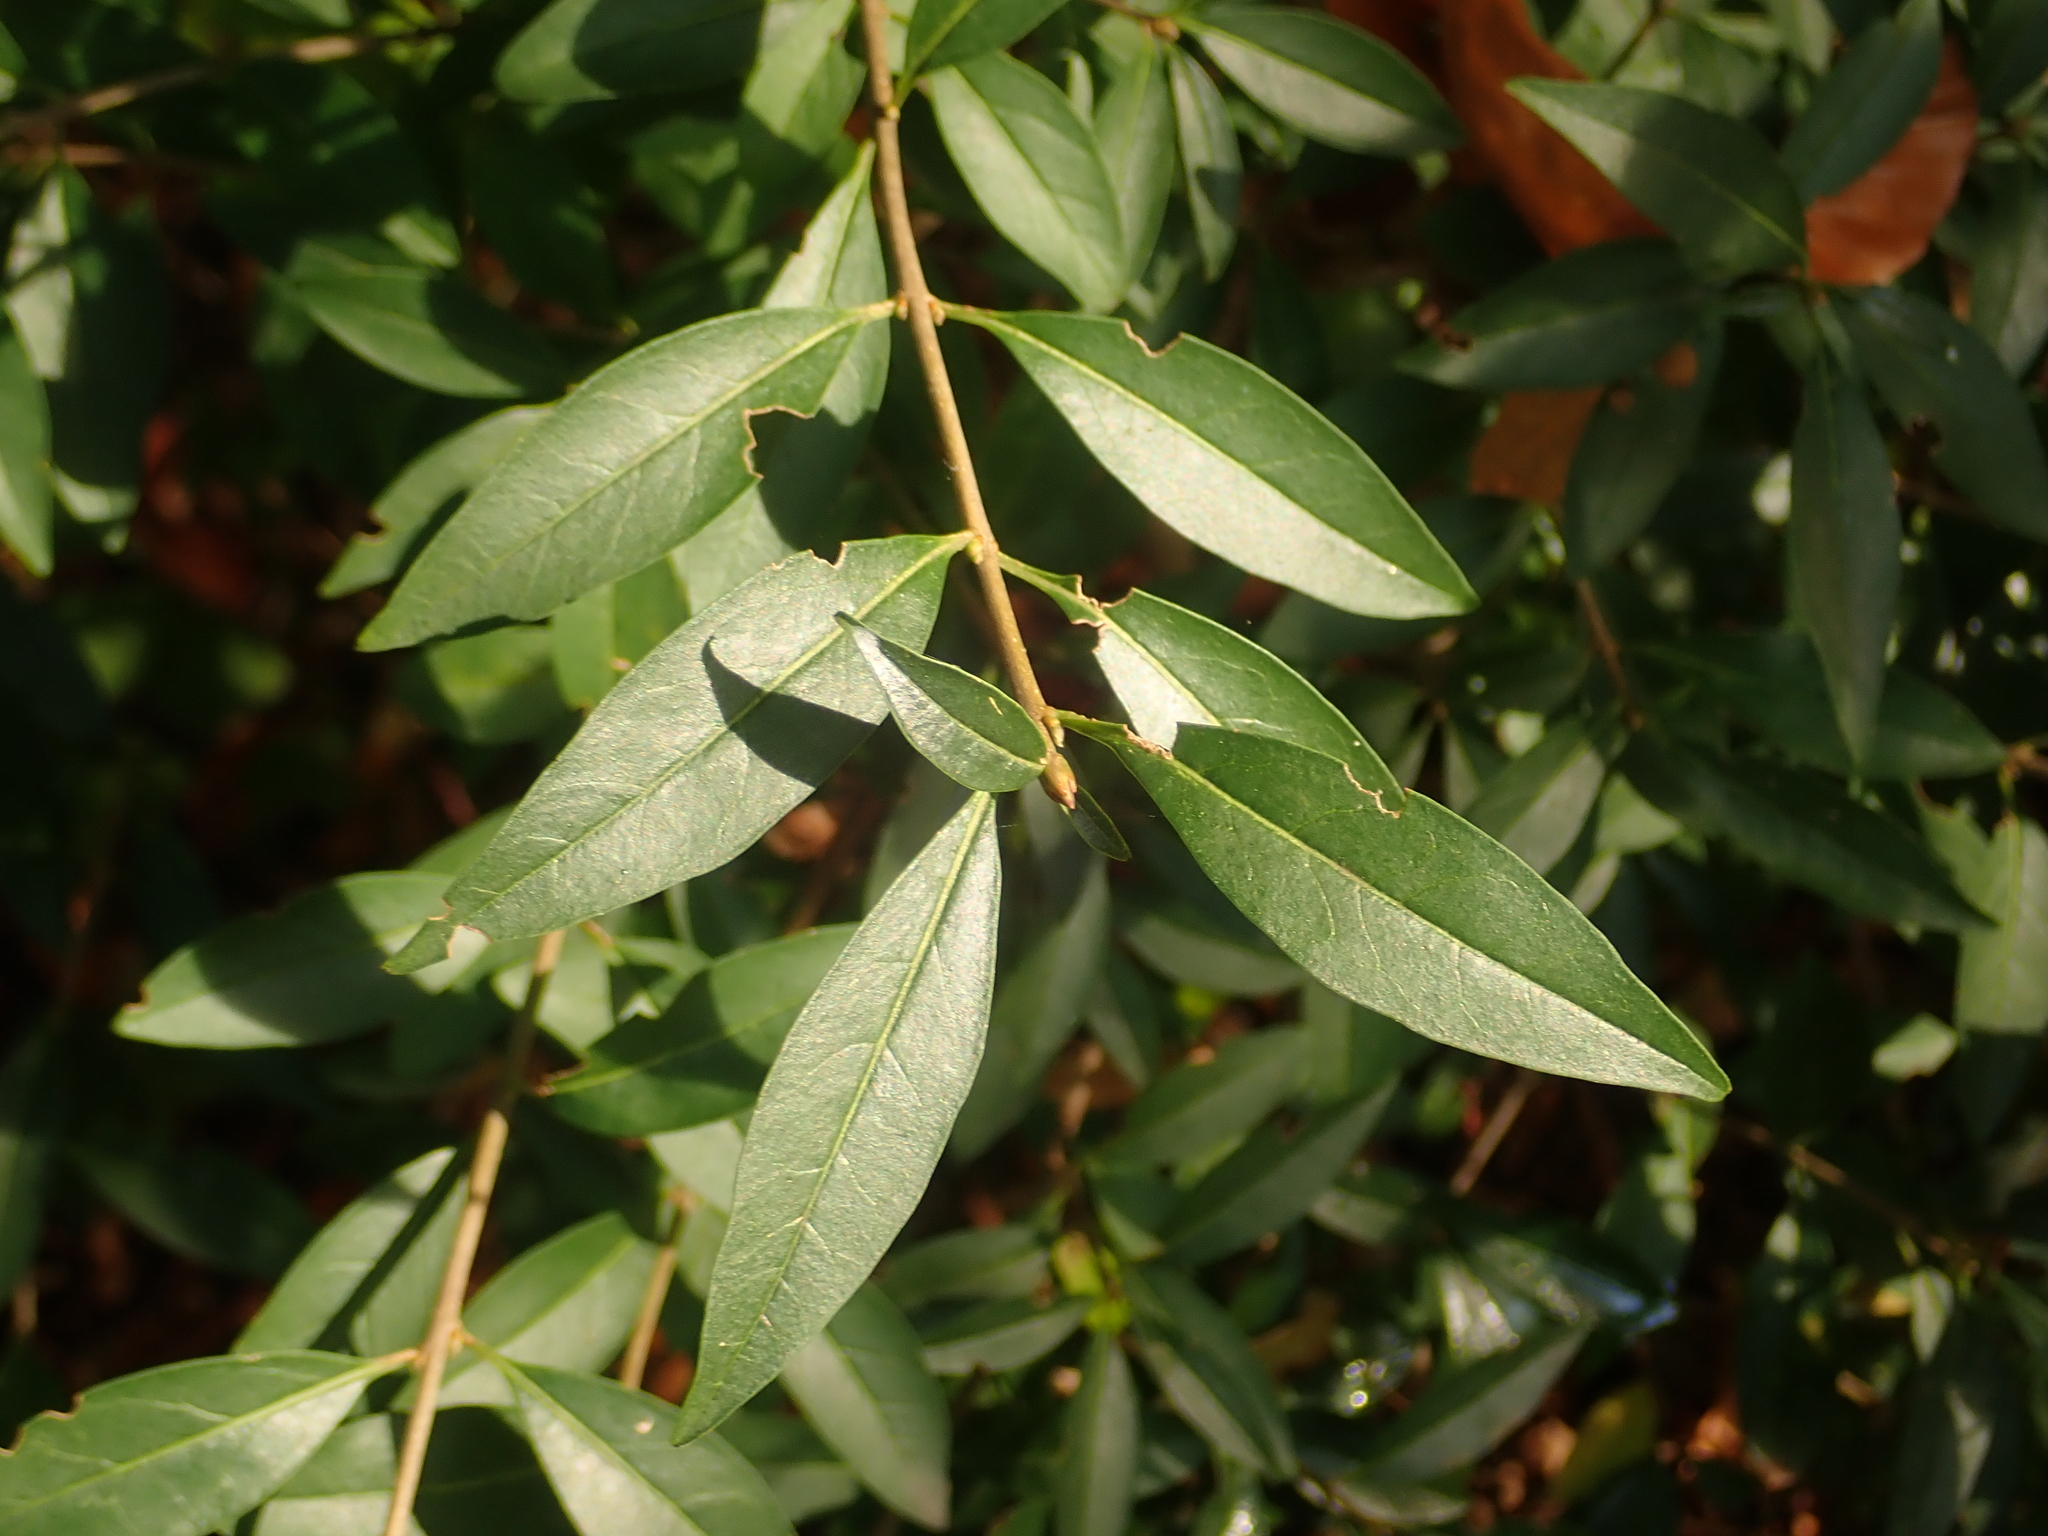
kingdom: Plantae
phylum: Tracheophyta
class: Magnoliopsida
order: Lamiales
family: Oleaceae
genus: Ligustrum
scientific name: Ligustrum vulgare
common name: Wild privet
